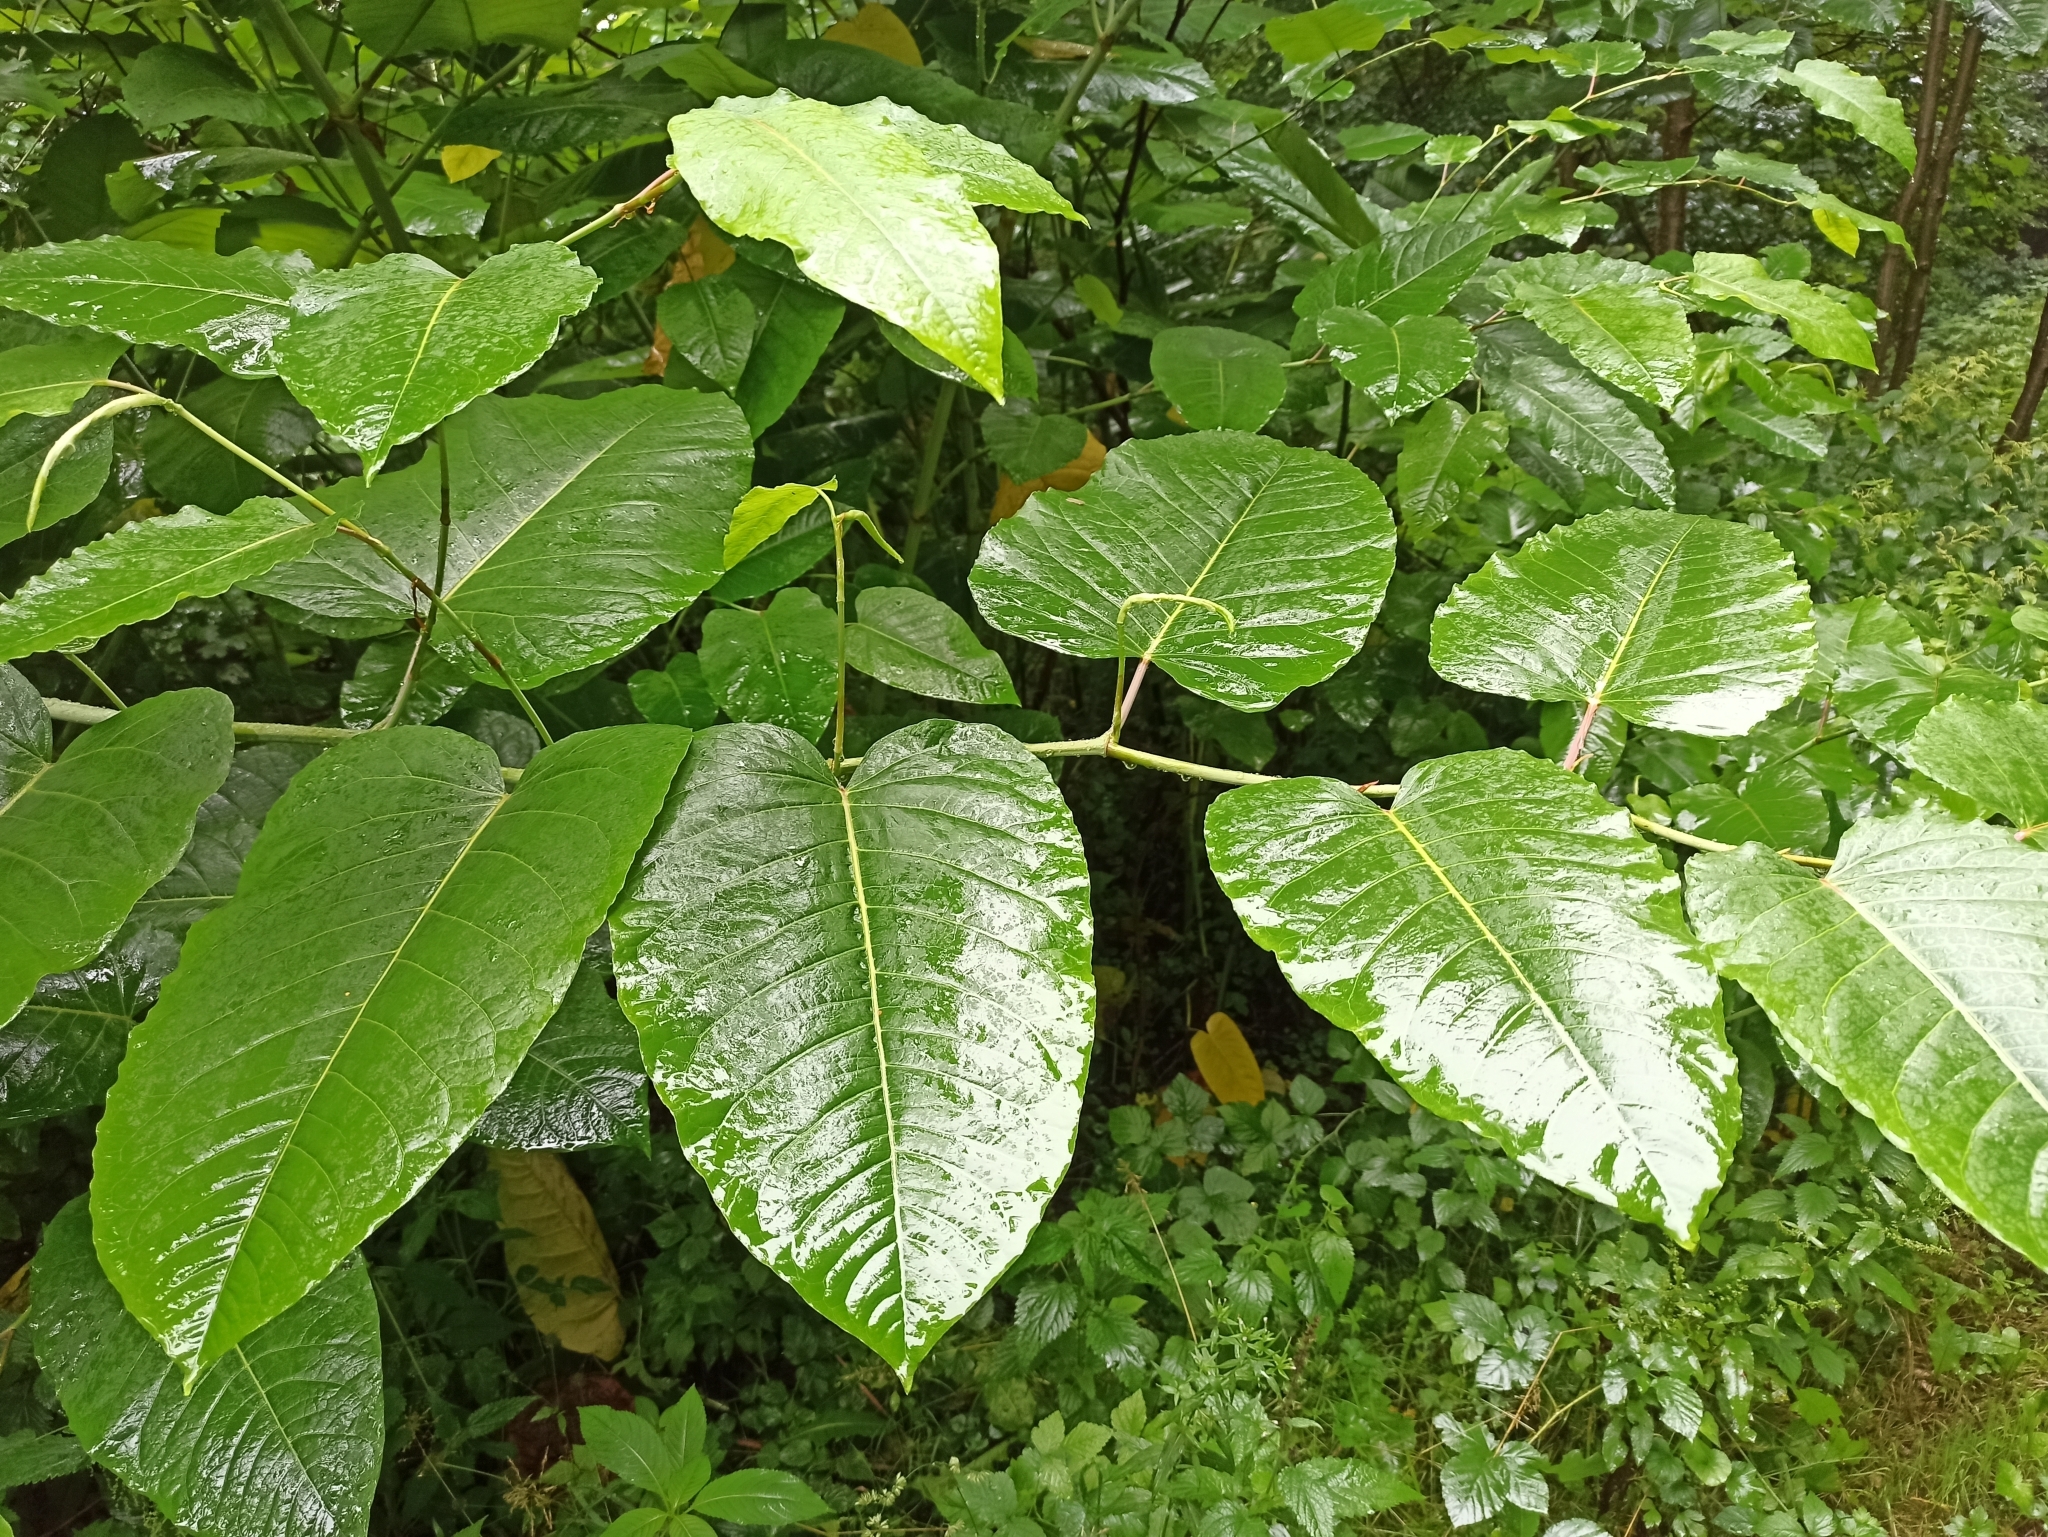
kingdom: Plantae
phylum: Tracheophyta
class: Magnoliopsida
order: Caryophyllales
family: Polygonaceae
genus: Reynoutria
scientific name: Reynoutria sachalinensis
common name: Giant knotweed
